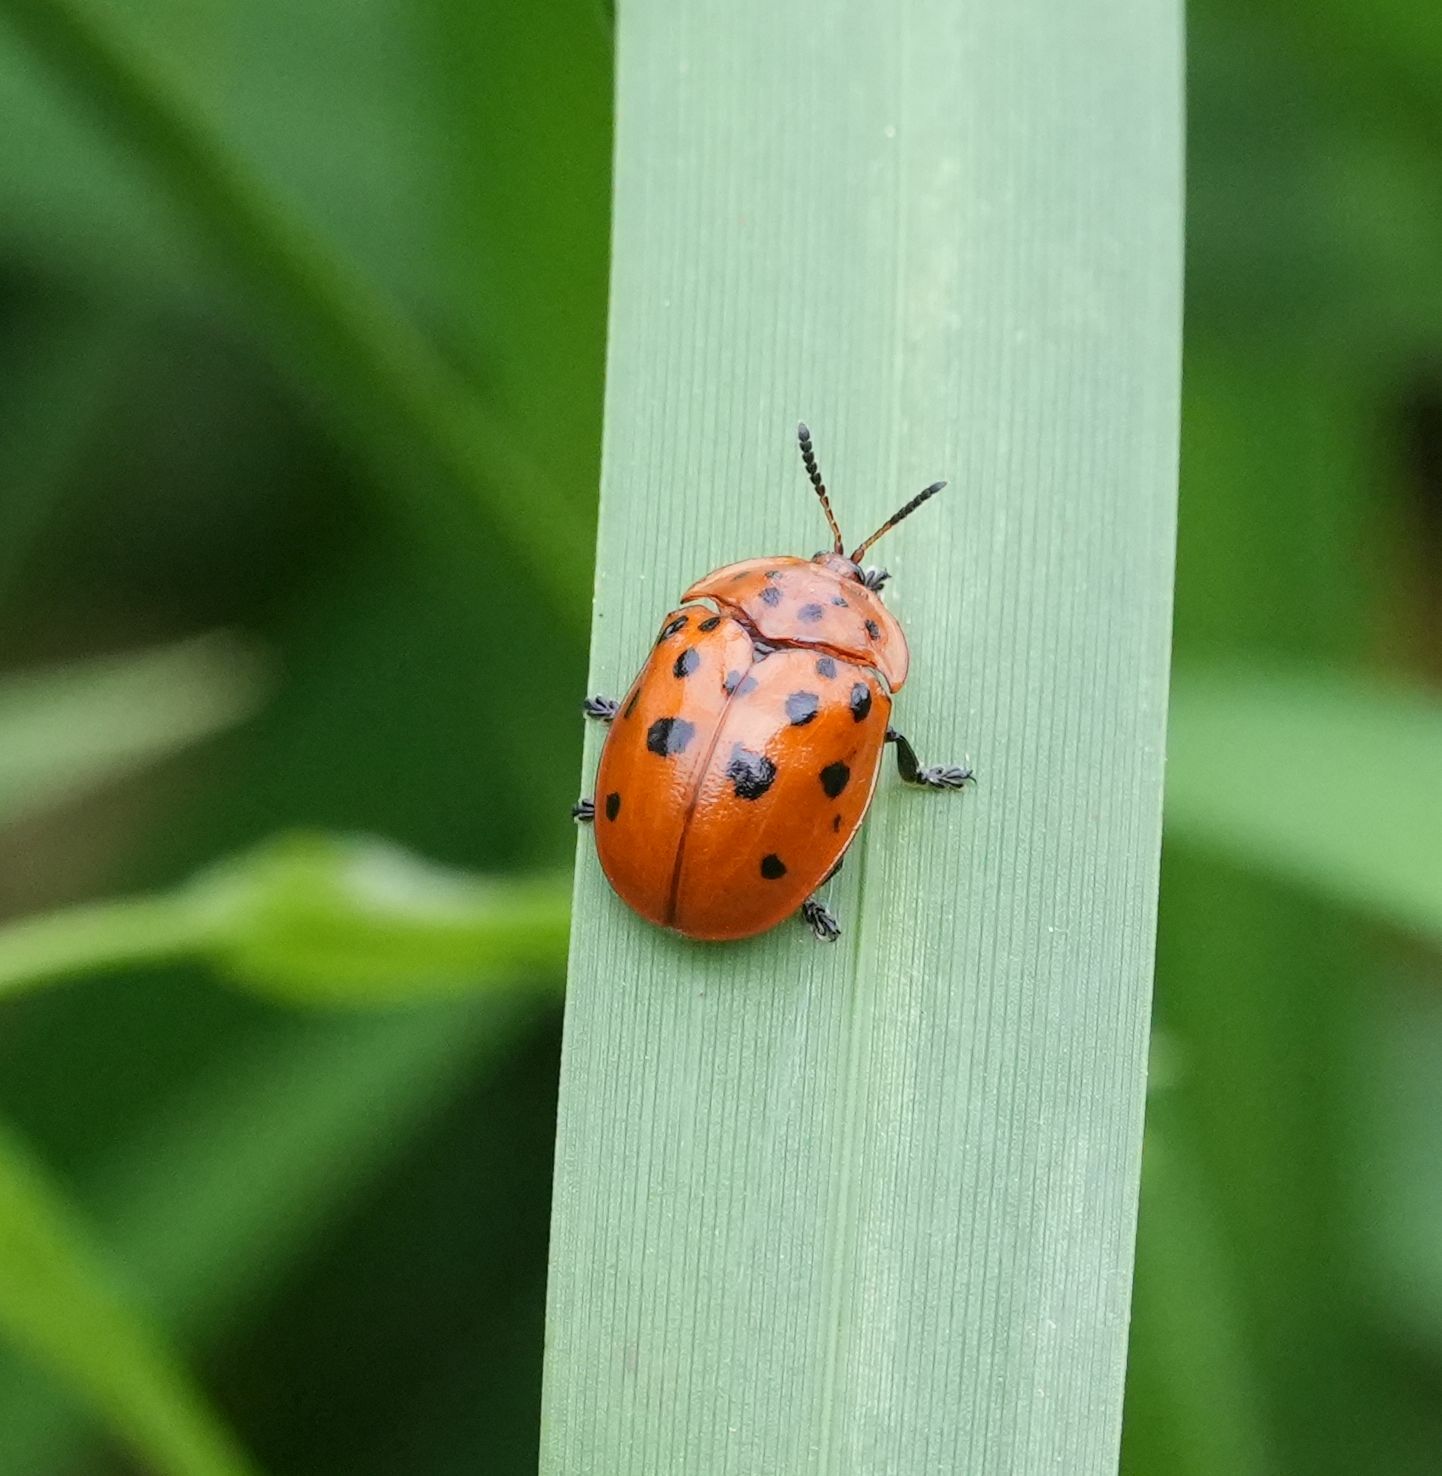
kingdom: Animalia
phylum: Arthropoda
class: Insecta
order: Coleoptera
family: Chrysomelidae
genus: Chelymorpha
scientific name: Chelymorpha cassidea
